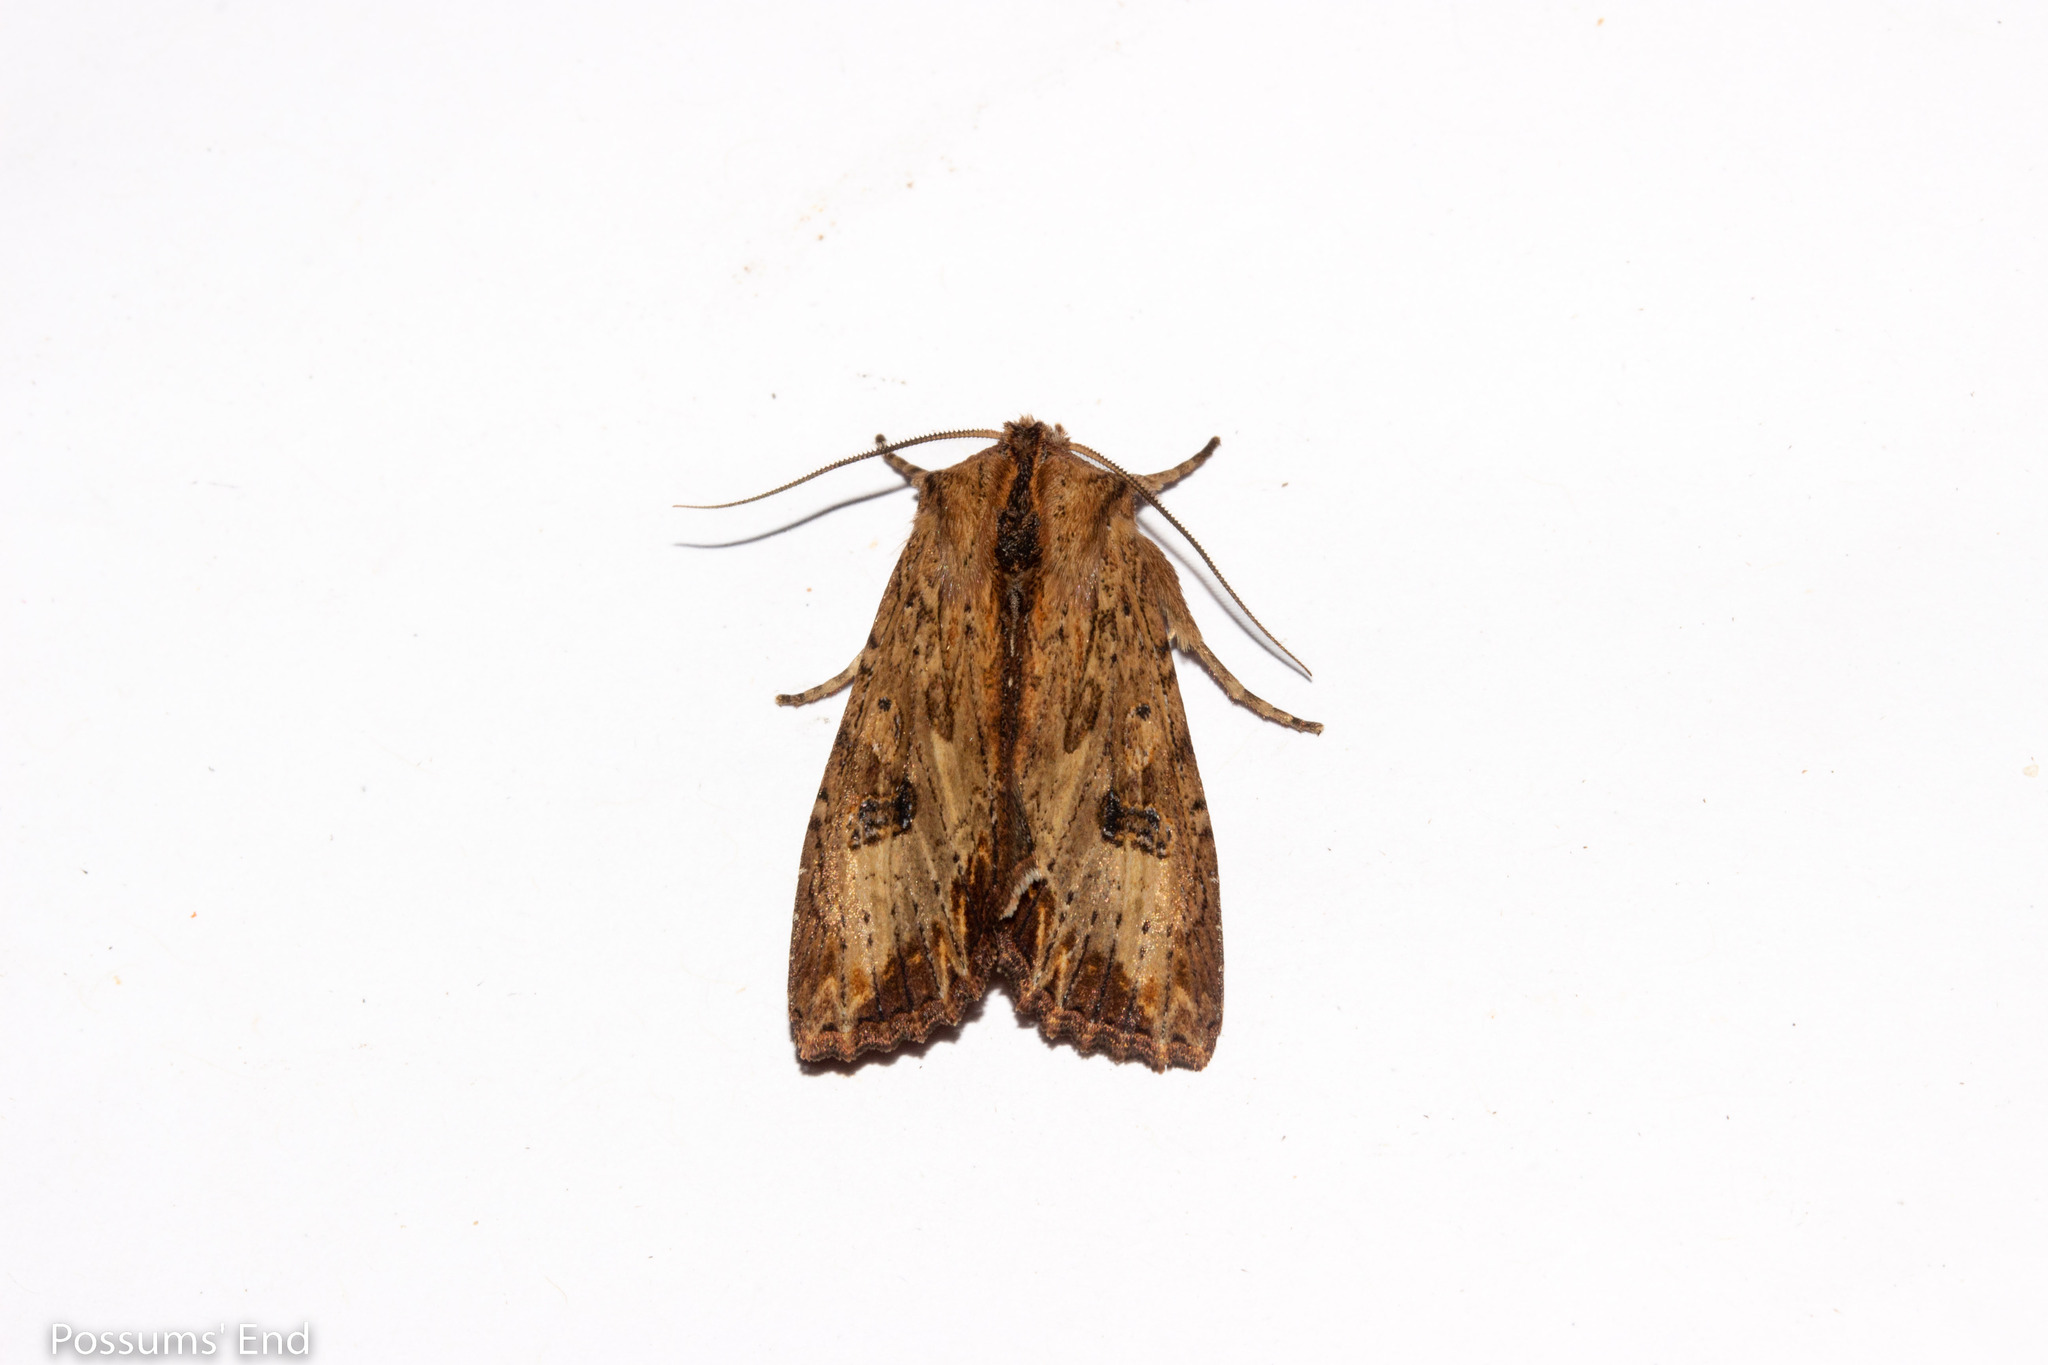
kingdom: Animalia
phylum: Arthropoda
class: Insecta
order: Lepidoptera
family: Noctuidae
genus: Ichneutica
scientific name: Ichneutica
